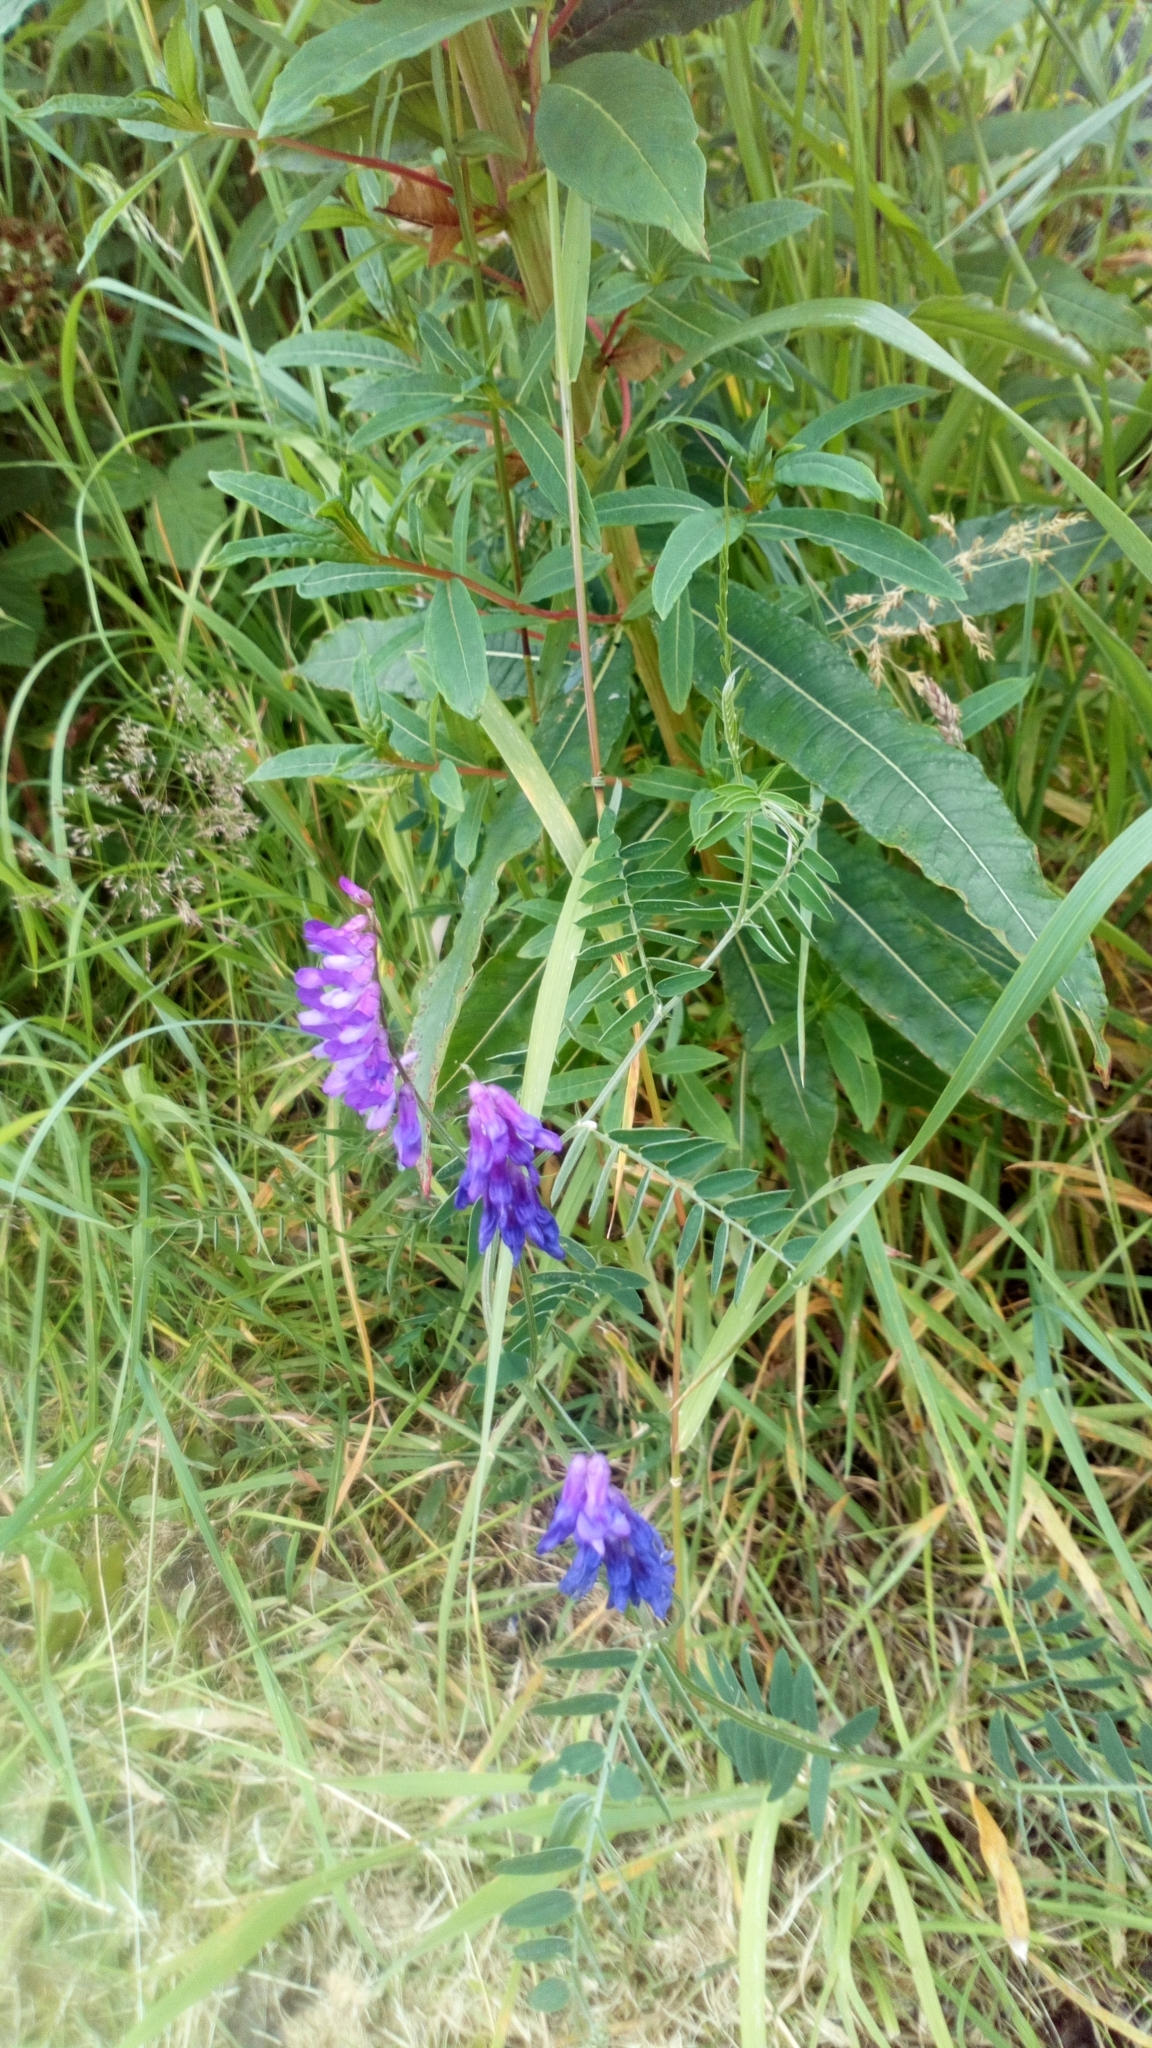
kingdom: Plantae
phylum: Tracheophyta
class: Magnoliopsida
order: Fabales
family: Fabaceae
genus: Vicia
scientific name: Vicia cracca
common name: Bird vetch
